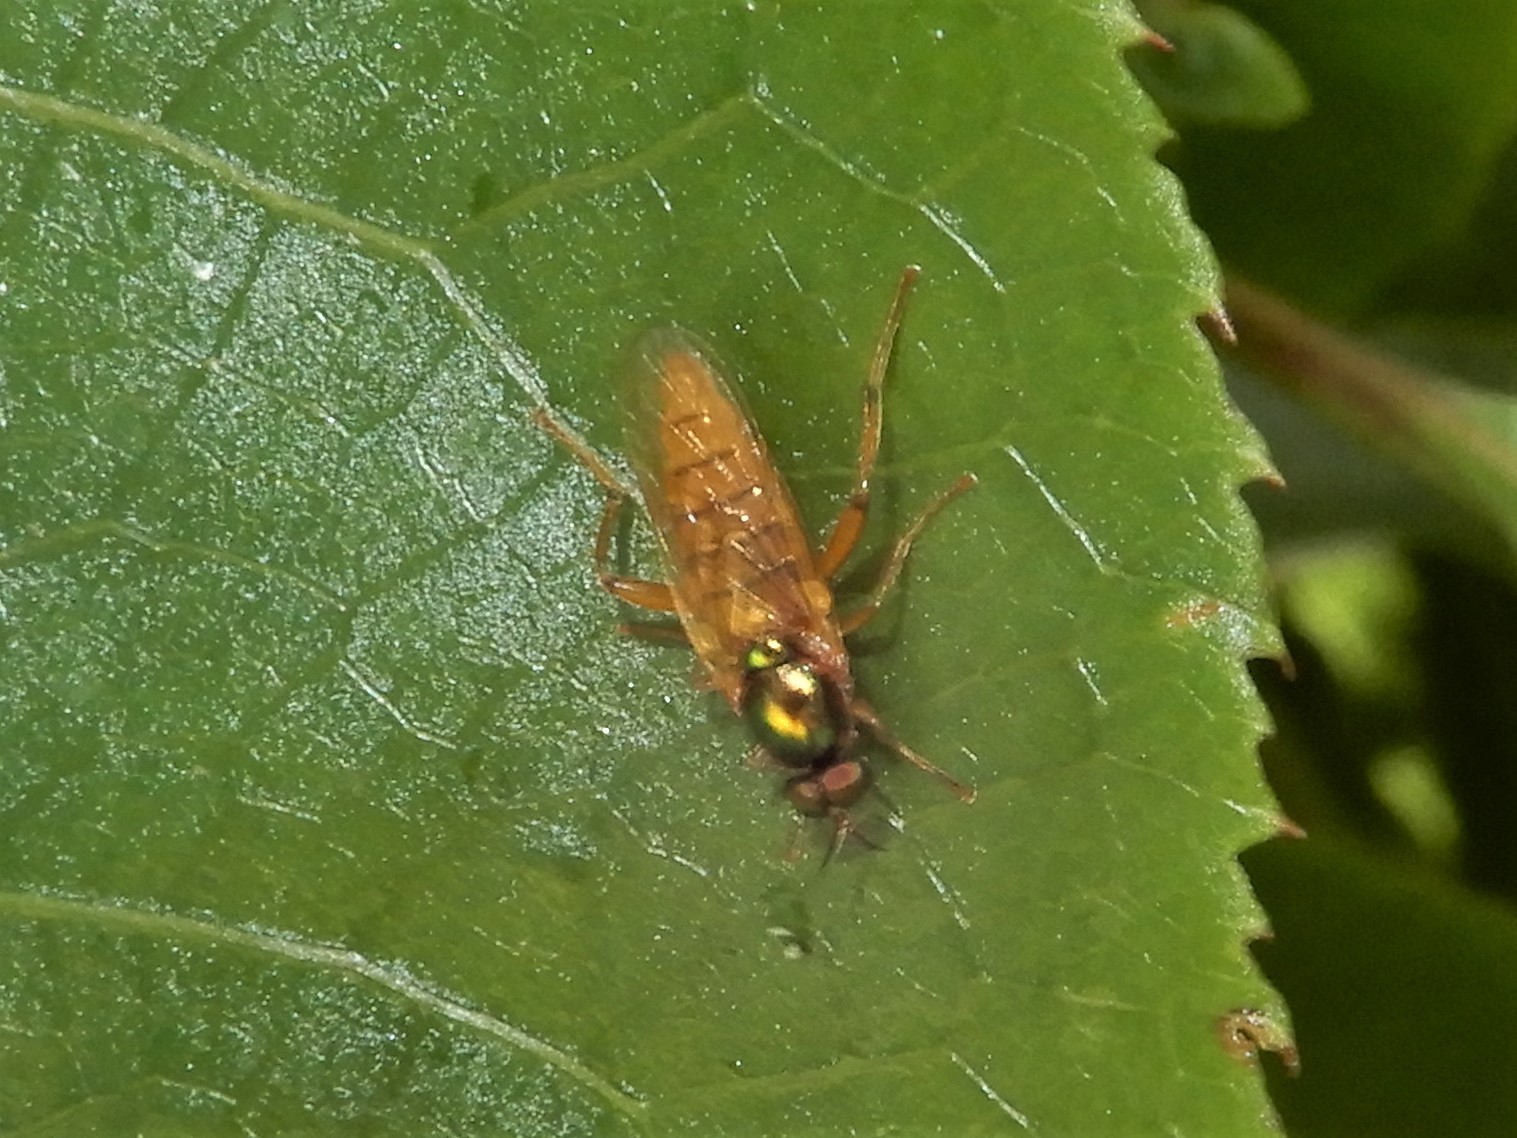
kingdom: Animalia
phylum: Arthropoda
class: Insecta
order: Diptera
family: Stratiomyidae
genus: Neactina
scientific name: Neactina opposita
